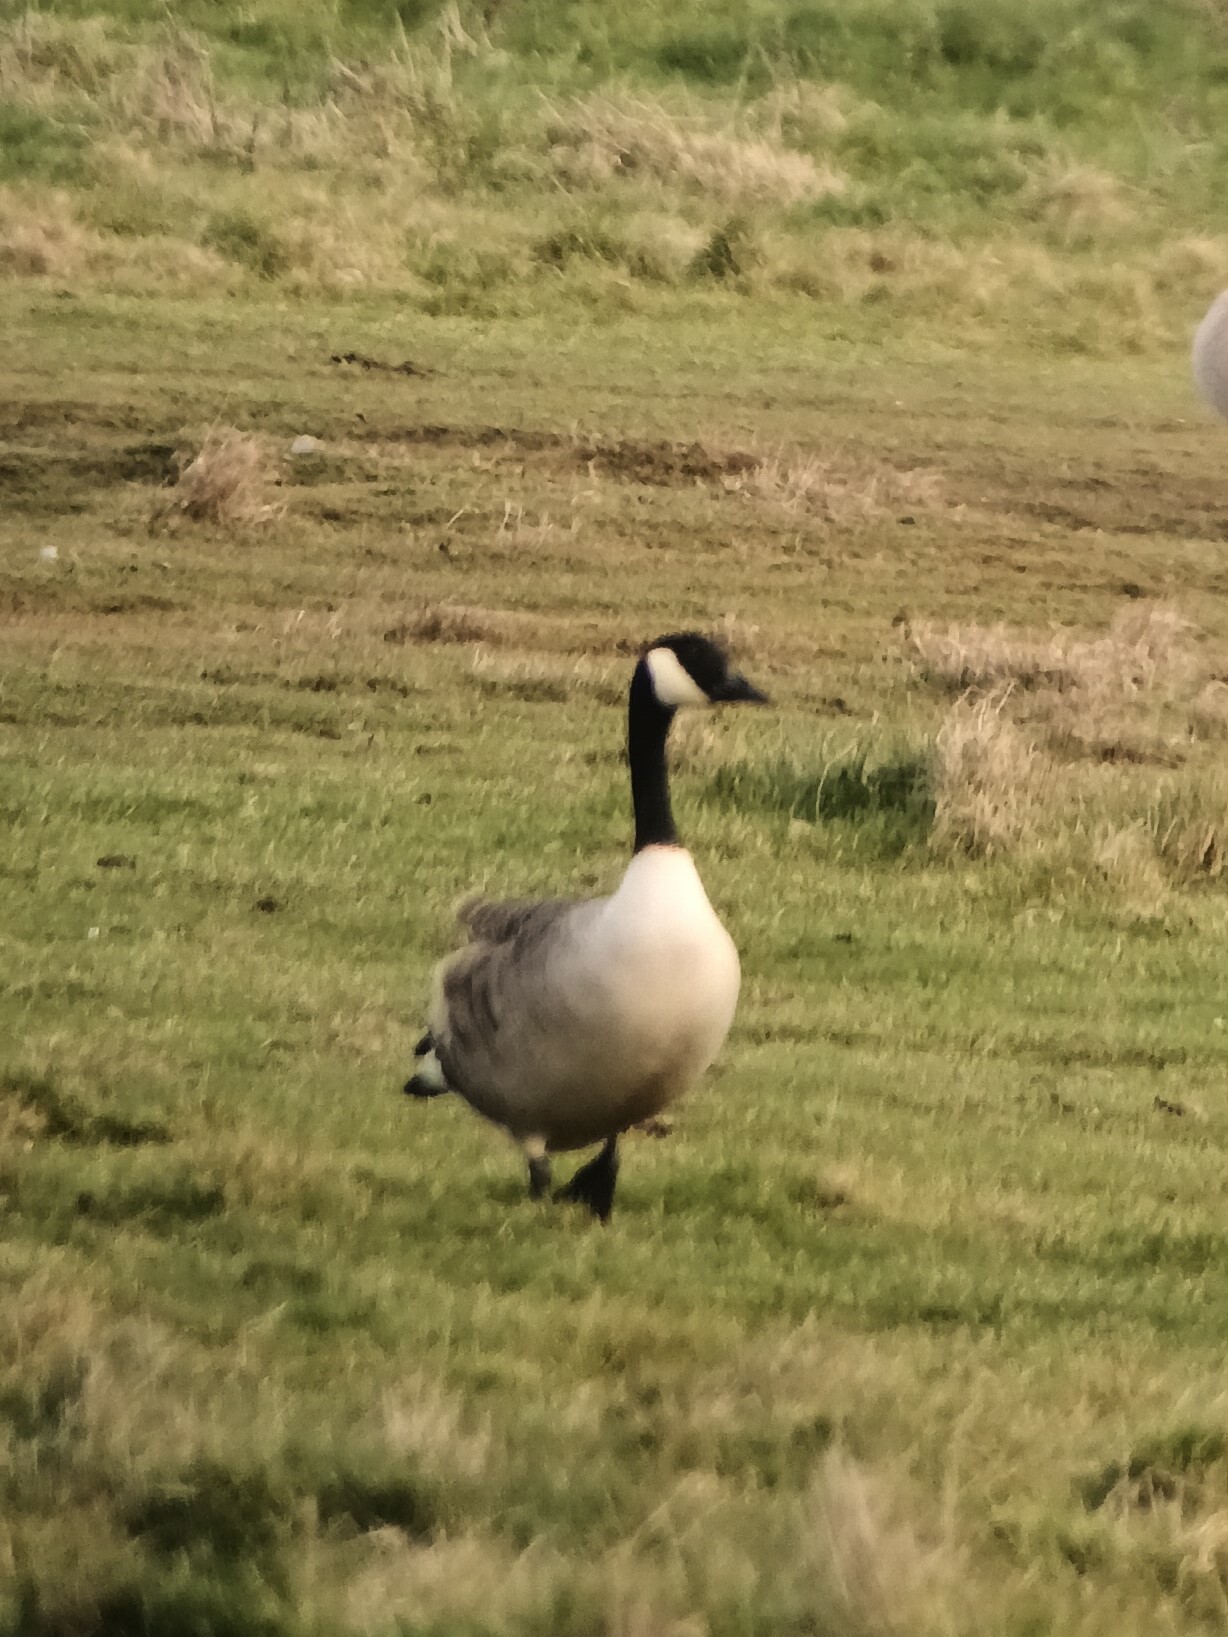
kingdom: Animalia
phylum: Chordata
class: Aves
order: Anseriformes
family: Anatidae
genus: Branta
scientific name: Branta canadensis
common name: Canada goose
